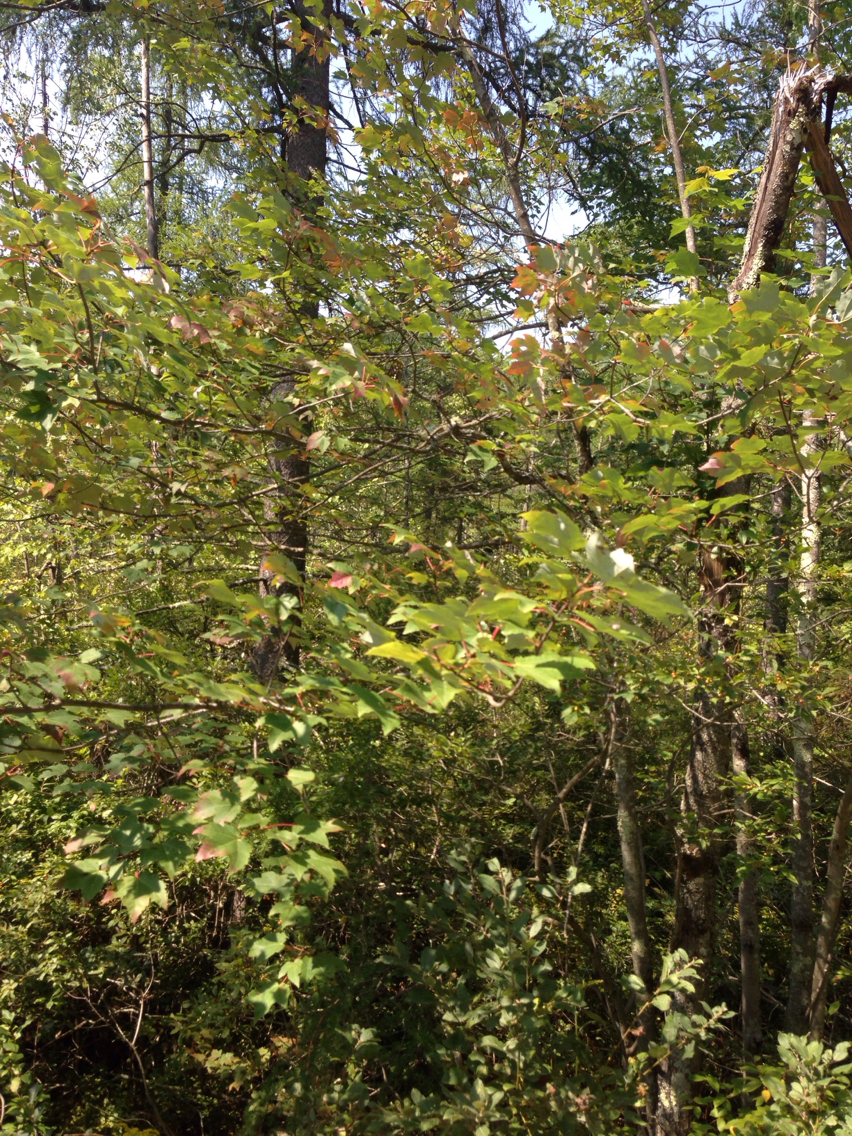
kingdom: Plantae
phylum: Tracheophyta
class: Magnoliopsida
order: Sapindales
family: Sapindaceae
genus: Acer
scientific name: Acer rubrum
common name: Red maple
